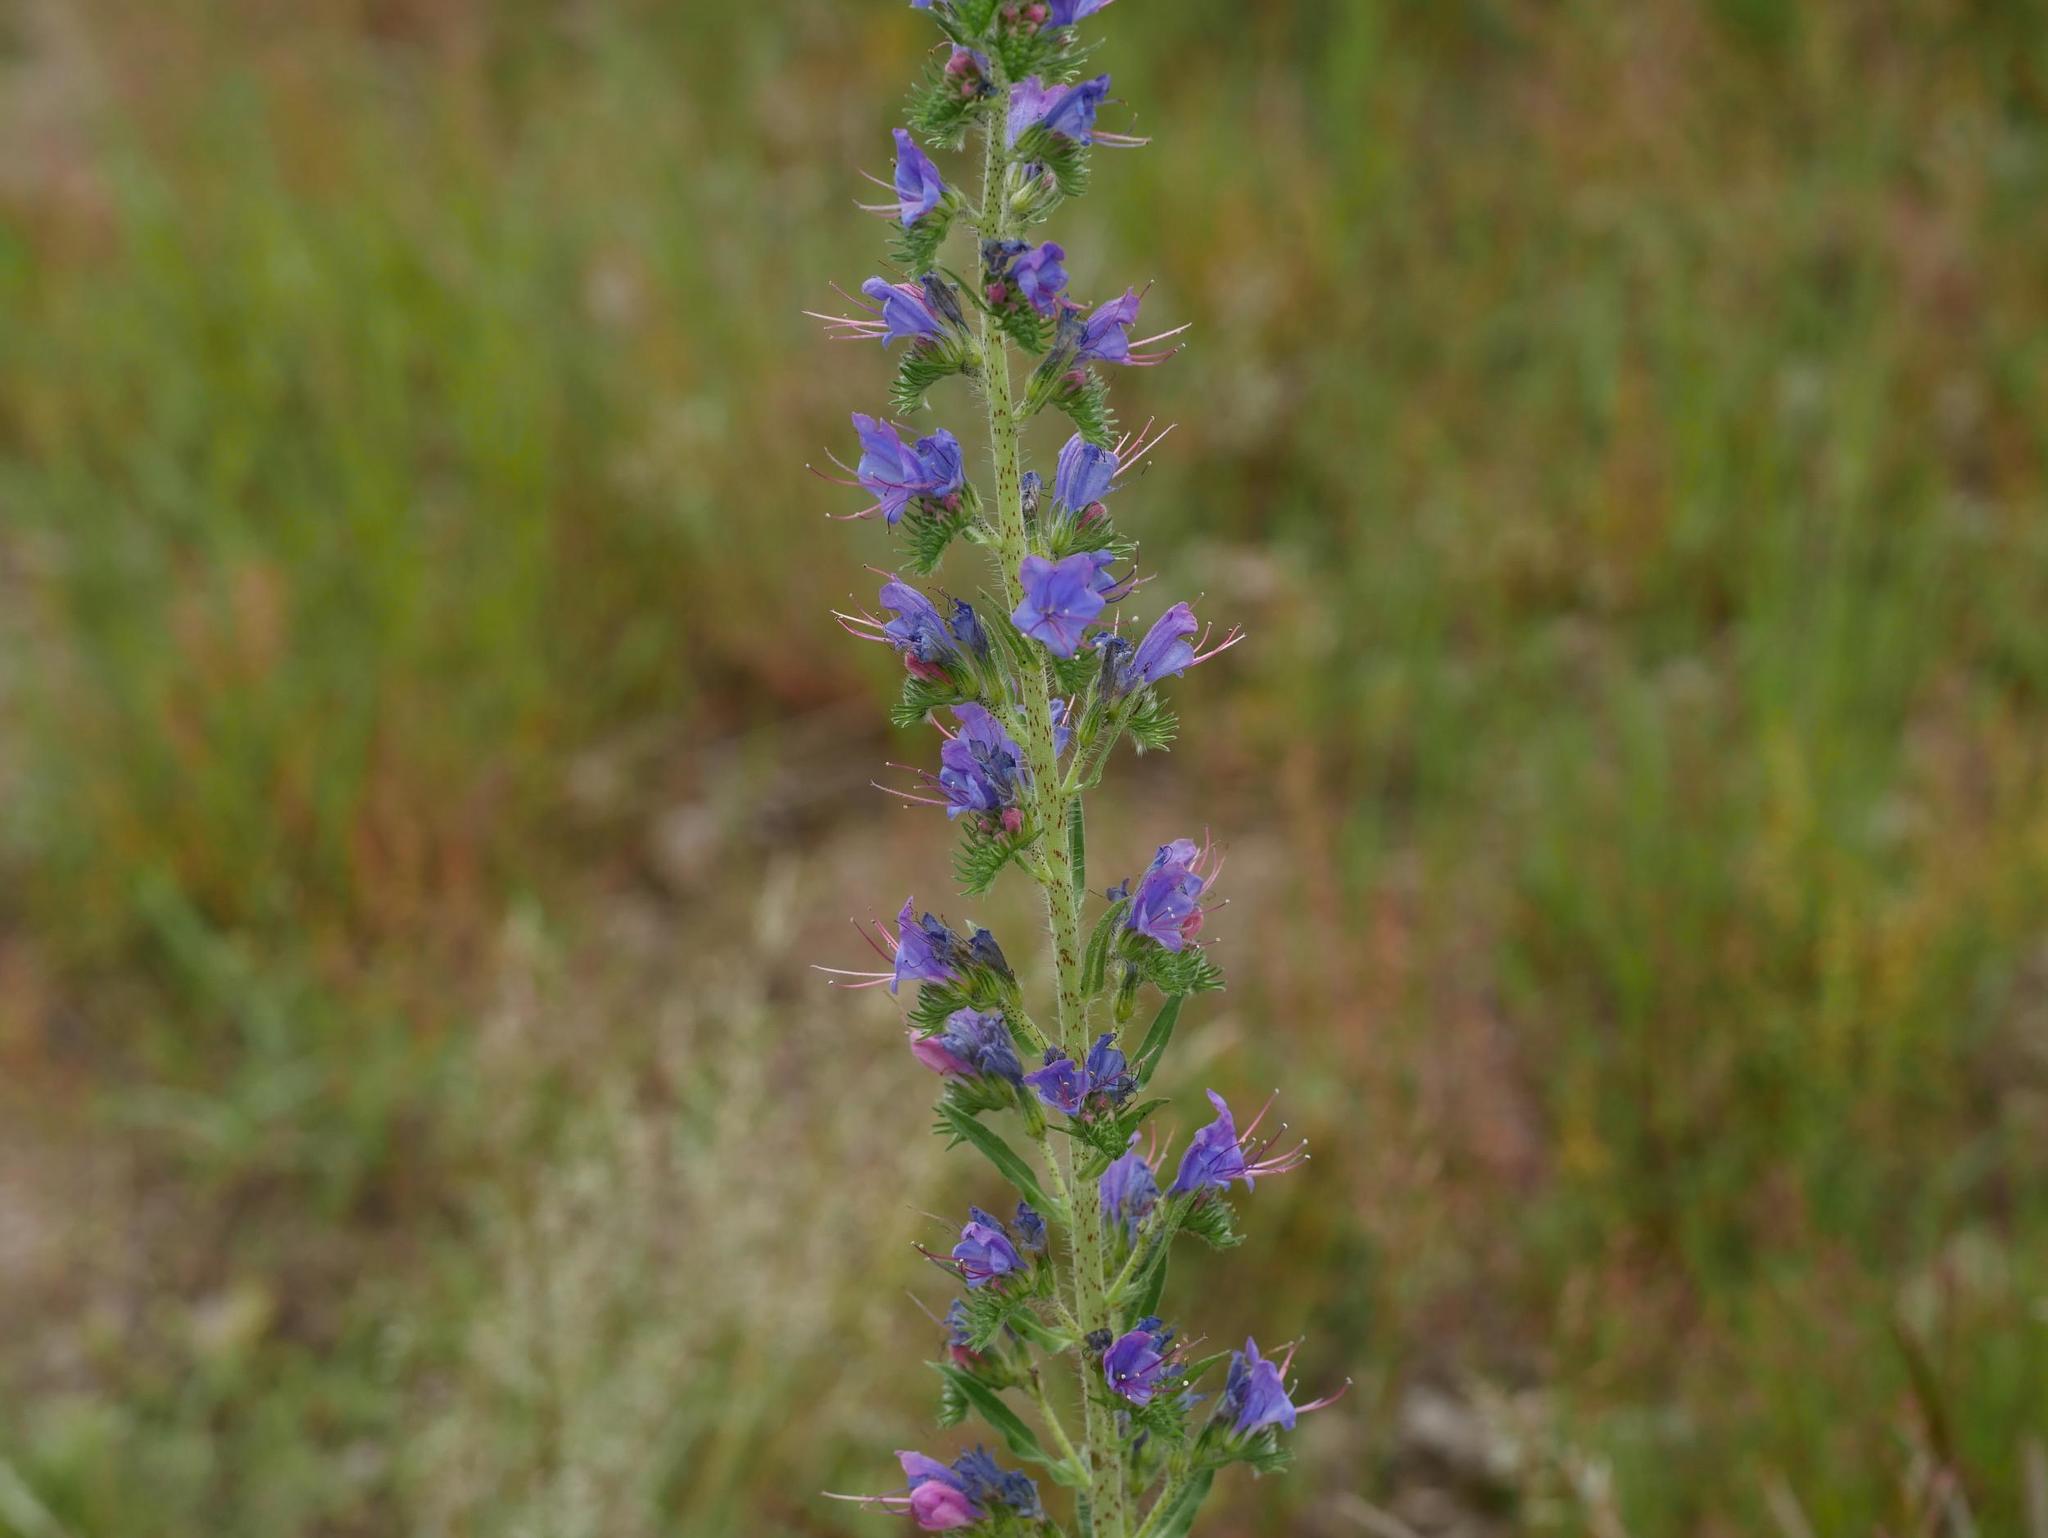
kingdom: Plantae
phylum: Tracheophyta
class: Magnoliopsida
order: Boraginales
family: Boraginaceae
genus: Echium
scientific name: Echium vulgare
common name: Common viper's bugloss
